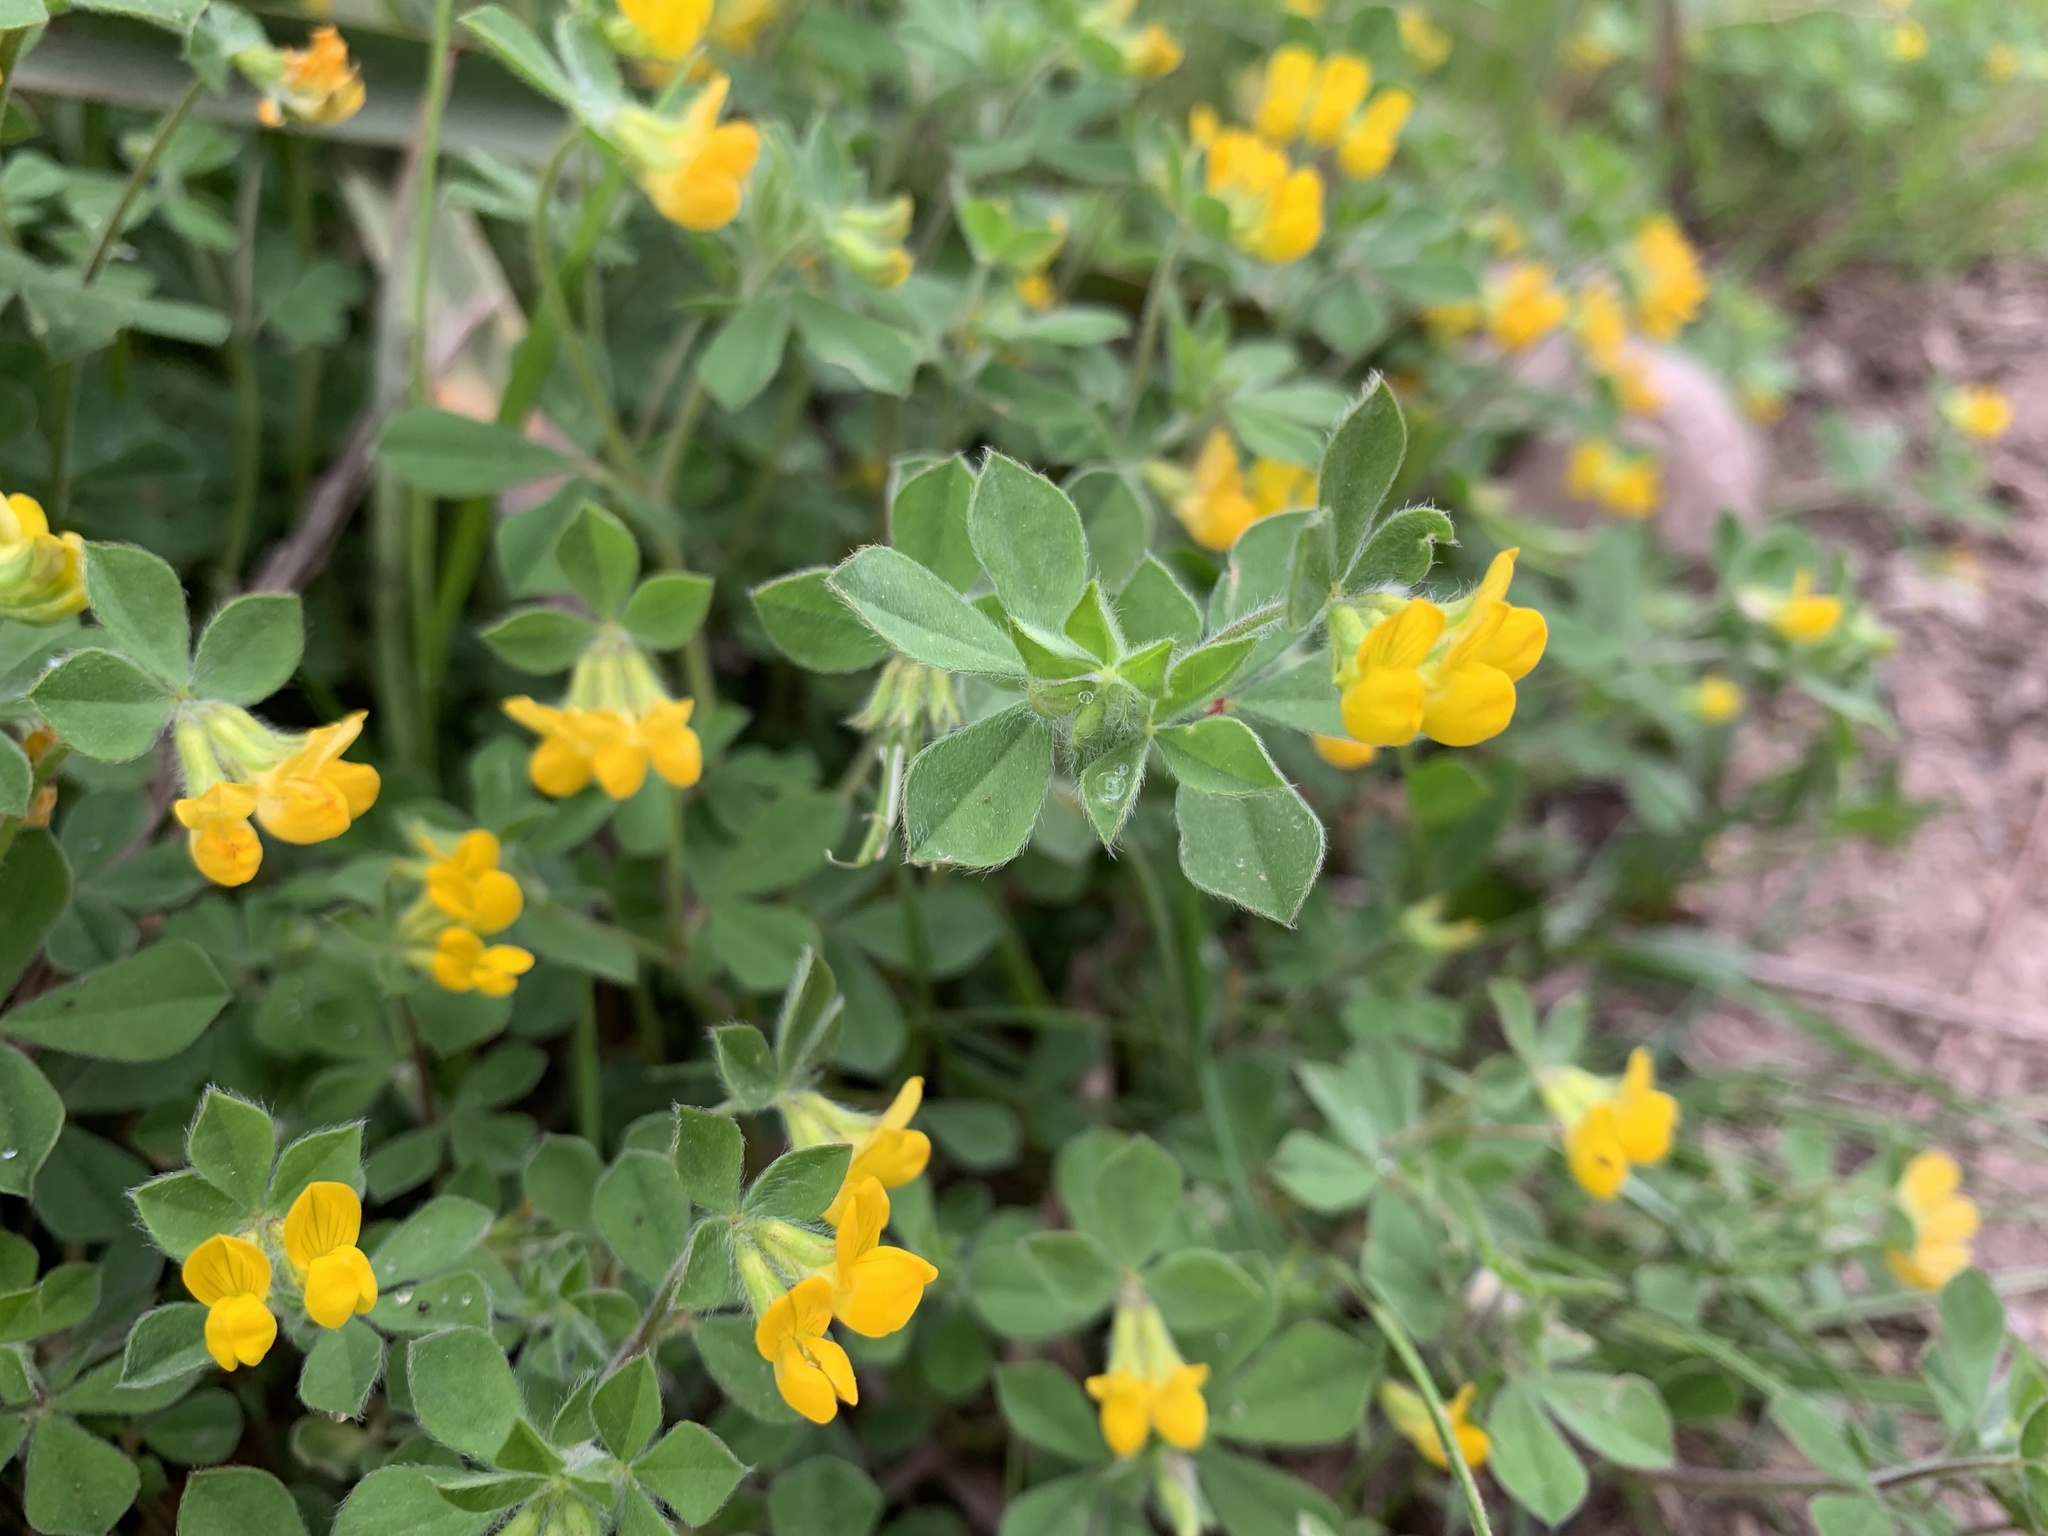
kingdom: Plantae
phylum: Tracheophyta
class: Magnoliopsida
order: Fabales
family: Fabaceae
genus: Lotus
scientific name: Lotus ornithopodioides
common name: Southern bird's-foot trefoil
